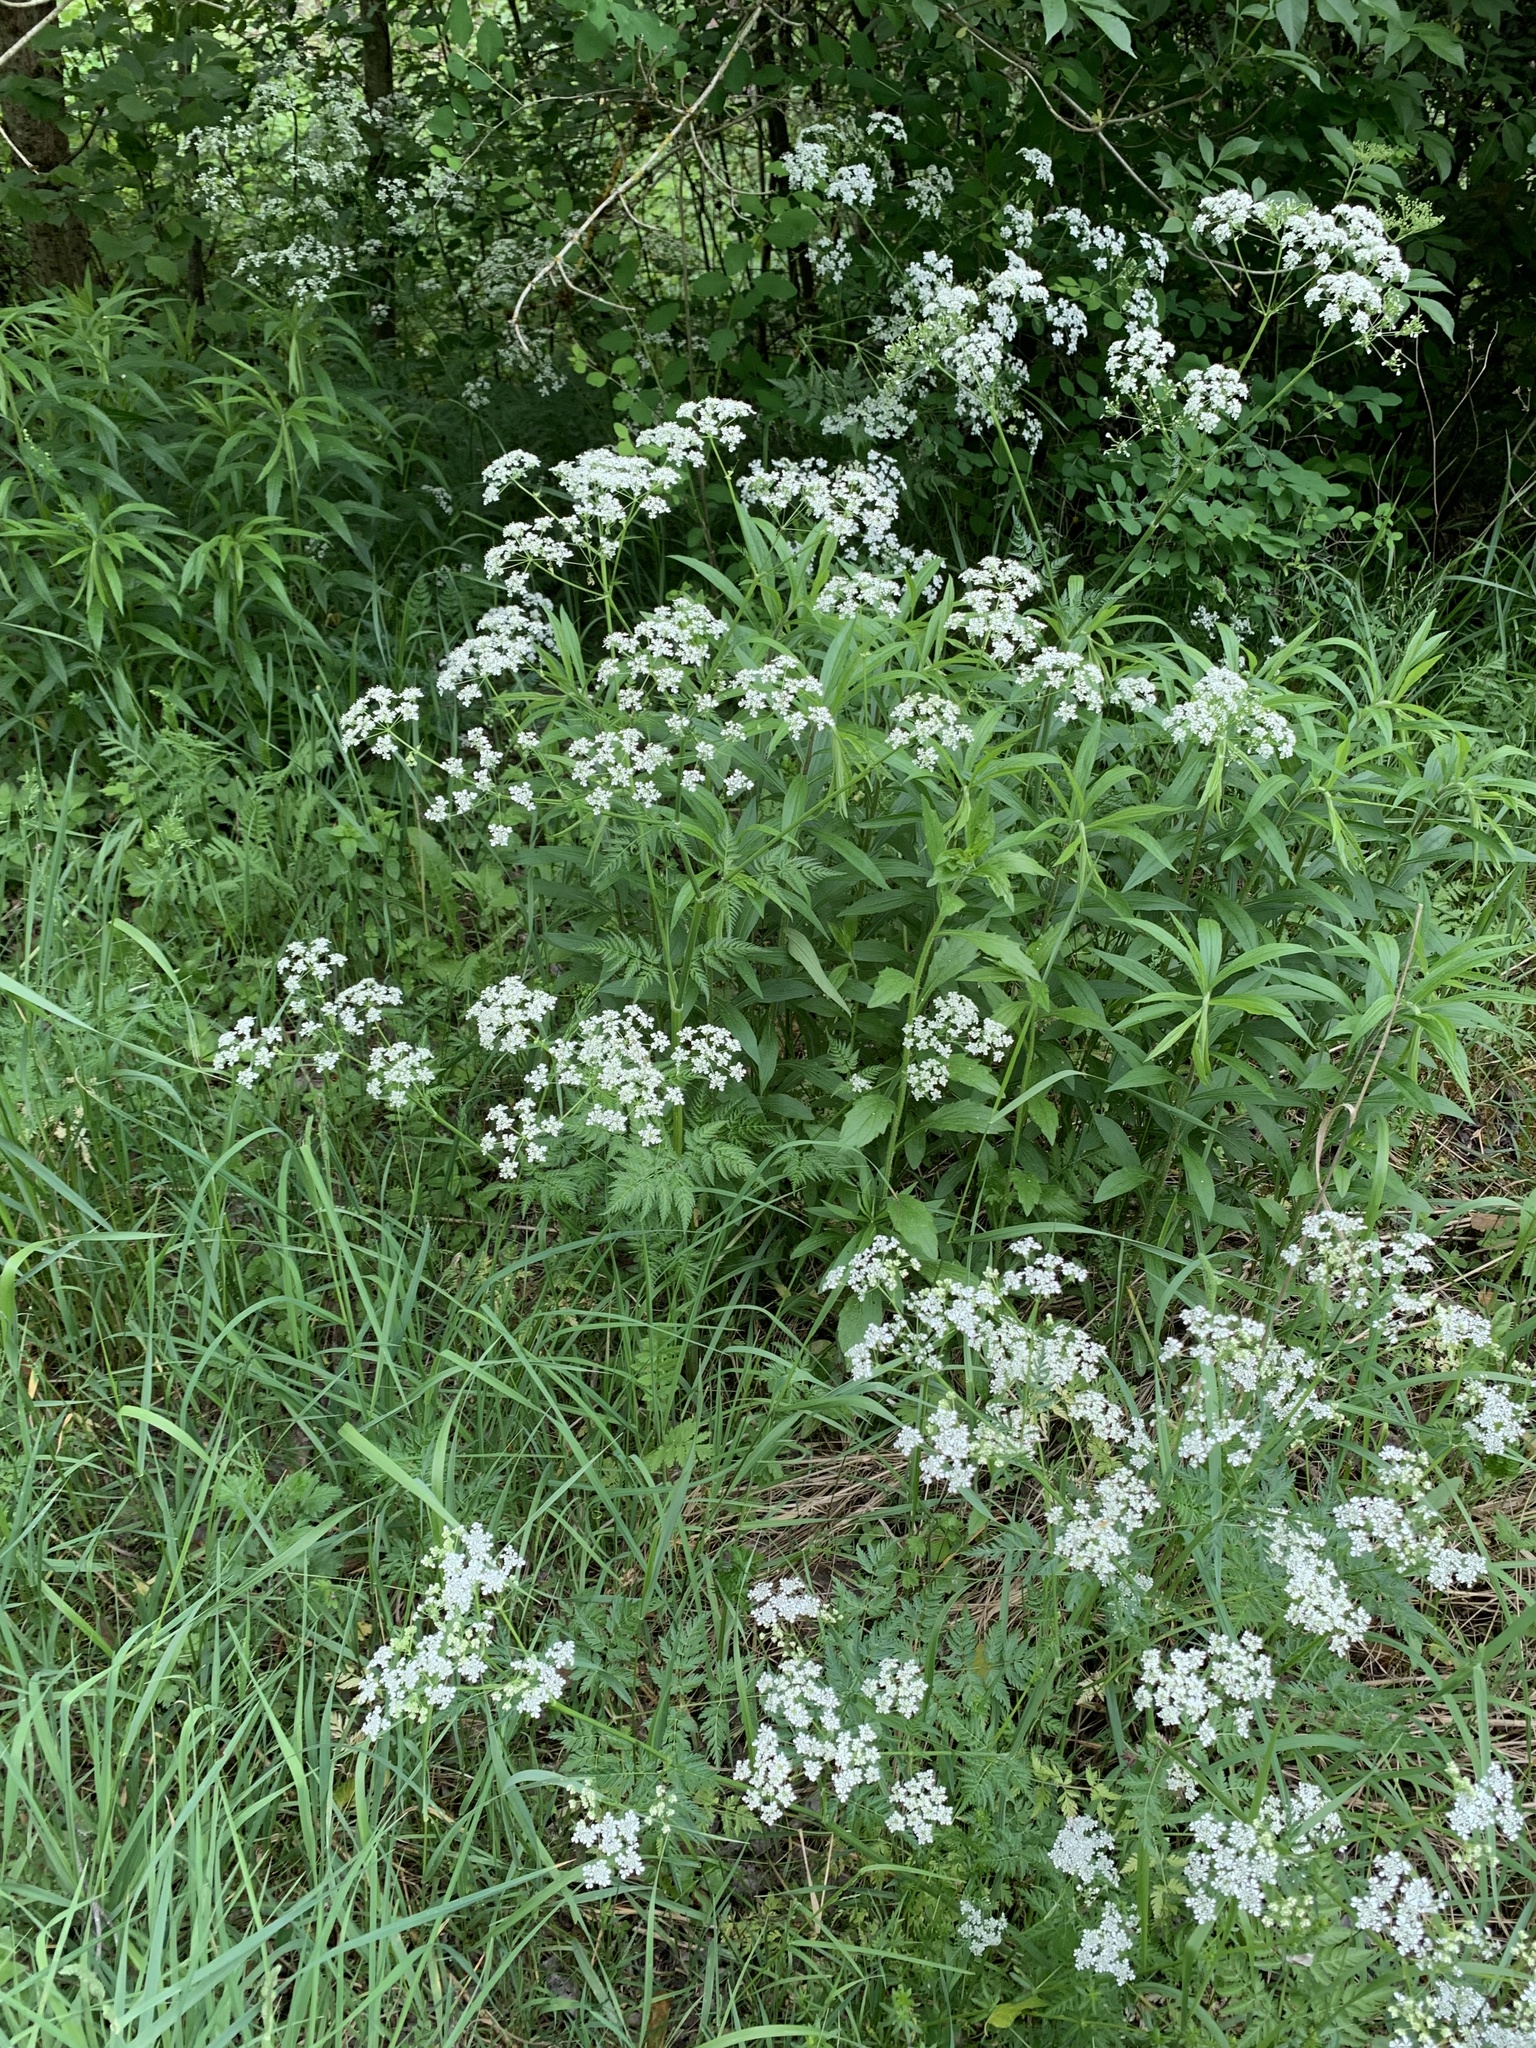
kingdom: Plantae
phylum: Tracheophyta
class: Magnoliopsida
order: Apiales
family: Apiaceae
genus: Anthriscus
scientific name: Anthriscus sylvestris
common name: Cow parsley
